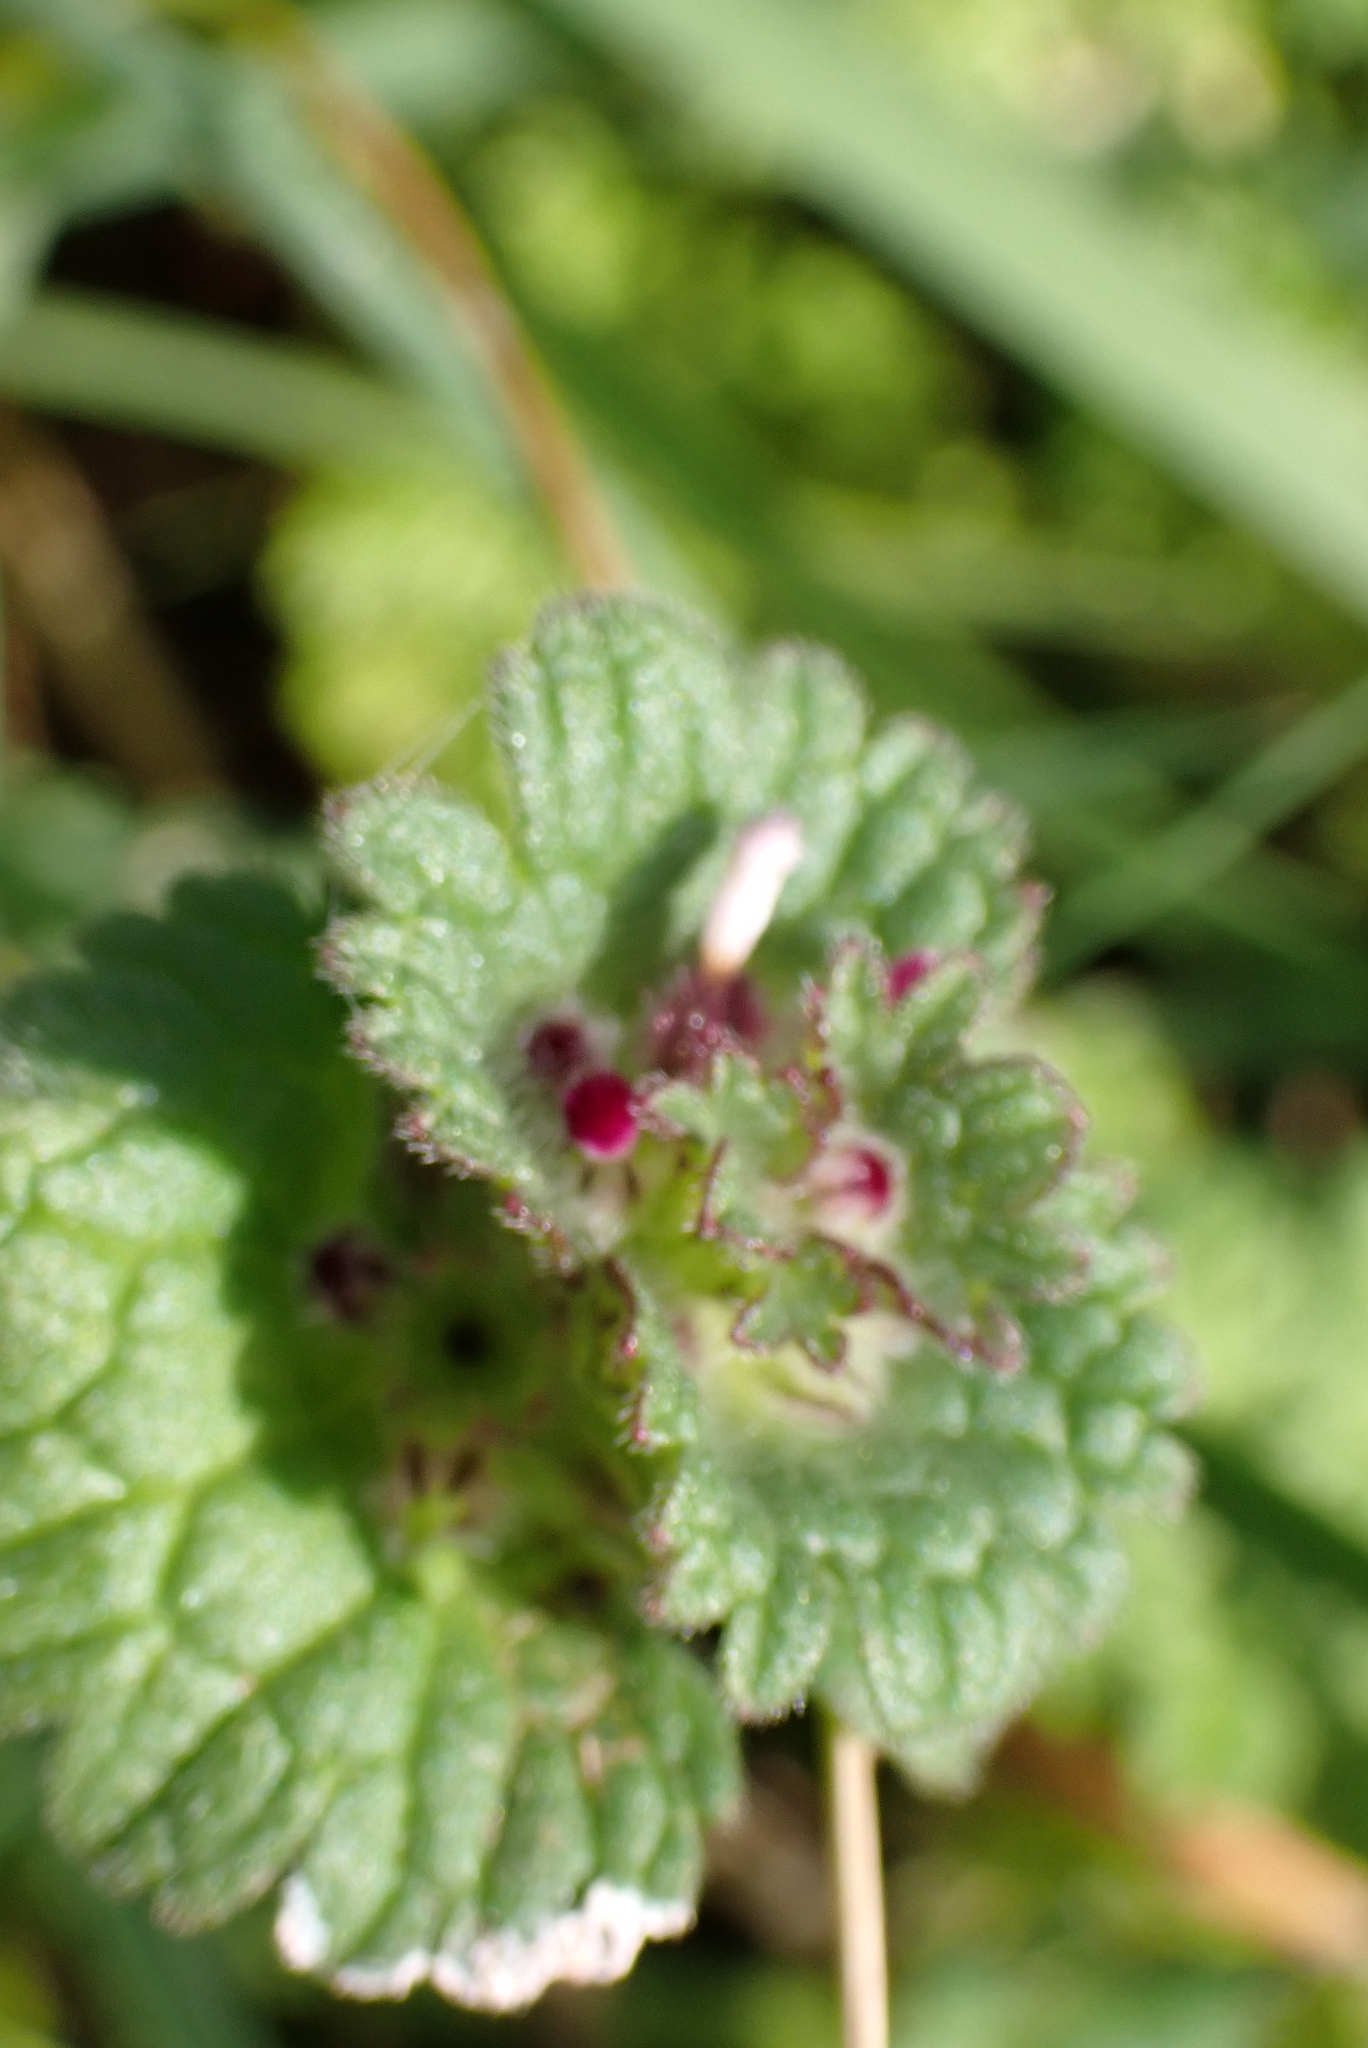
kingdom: Plantae
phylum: Tracheophyta
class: Magnoliopsida
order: Lamiales
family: Lamiaceae
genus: Lamium
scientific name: Lamium amplexicaule
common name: Henbit dead-nettle
